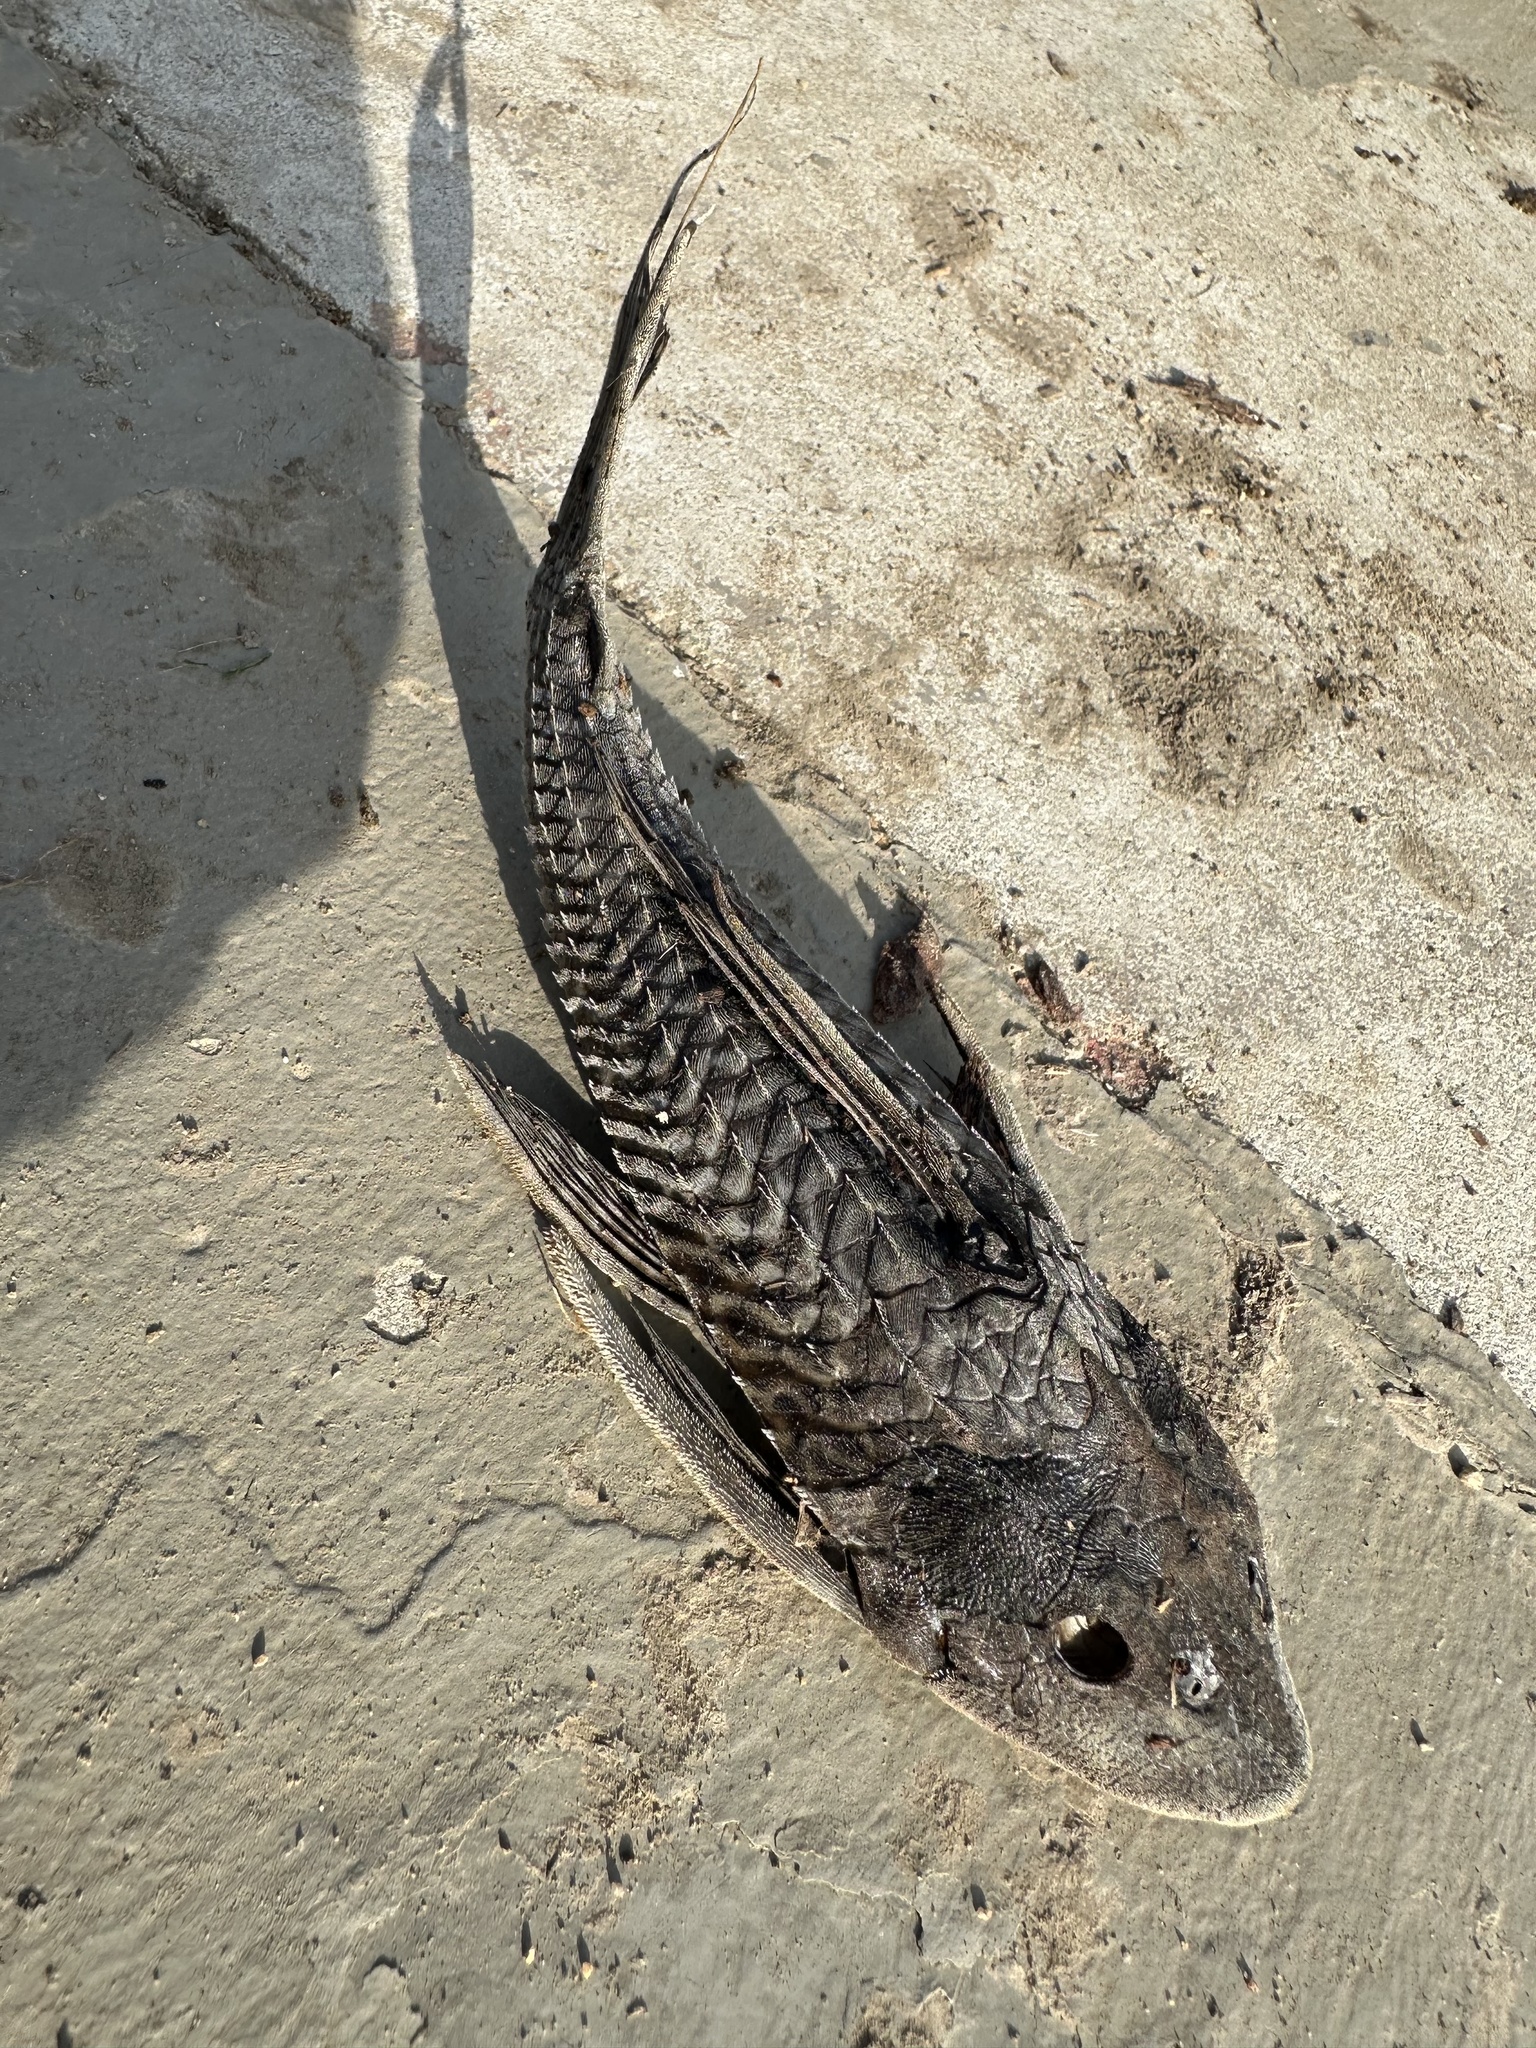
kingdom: Animalia
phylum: Chordata
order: Siluriformes
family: Loricariidae
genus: Pterygoplichthys
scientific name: Pterygoplichthys
